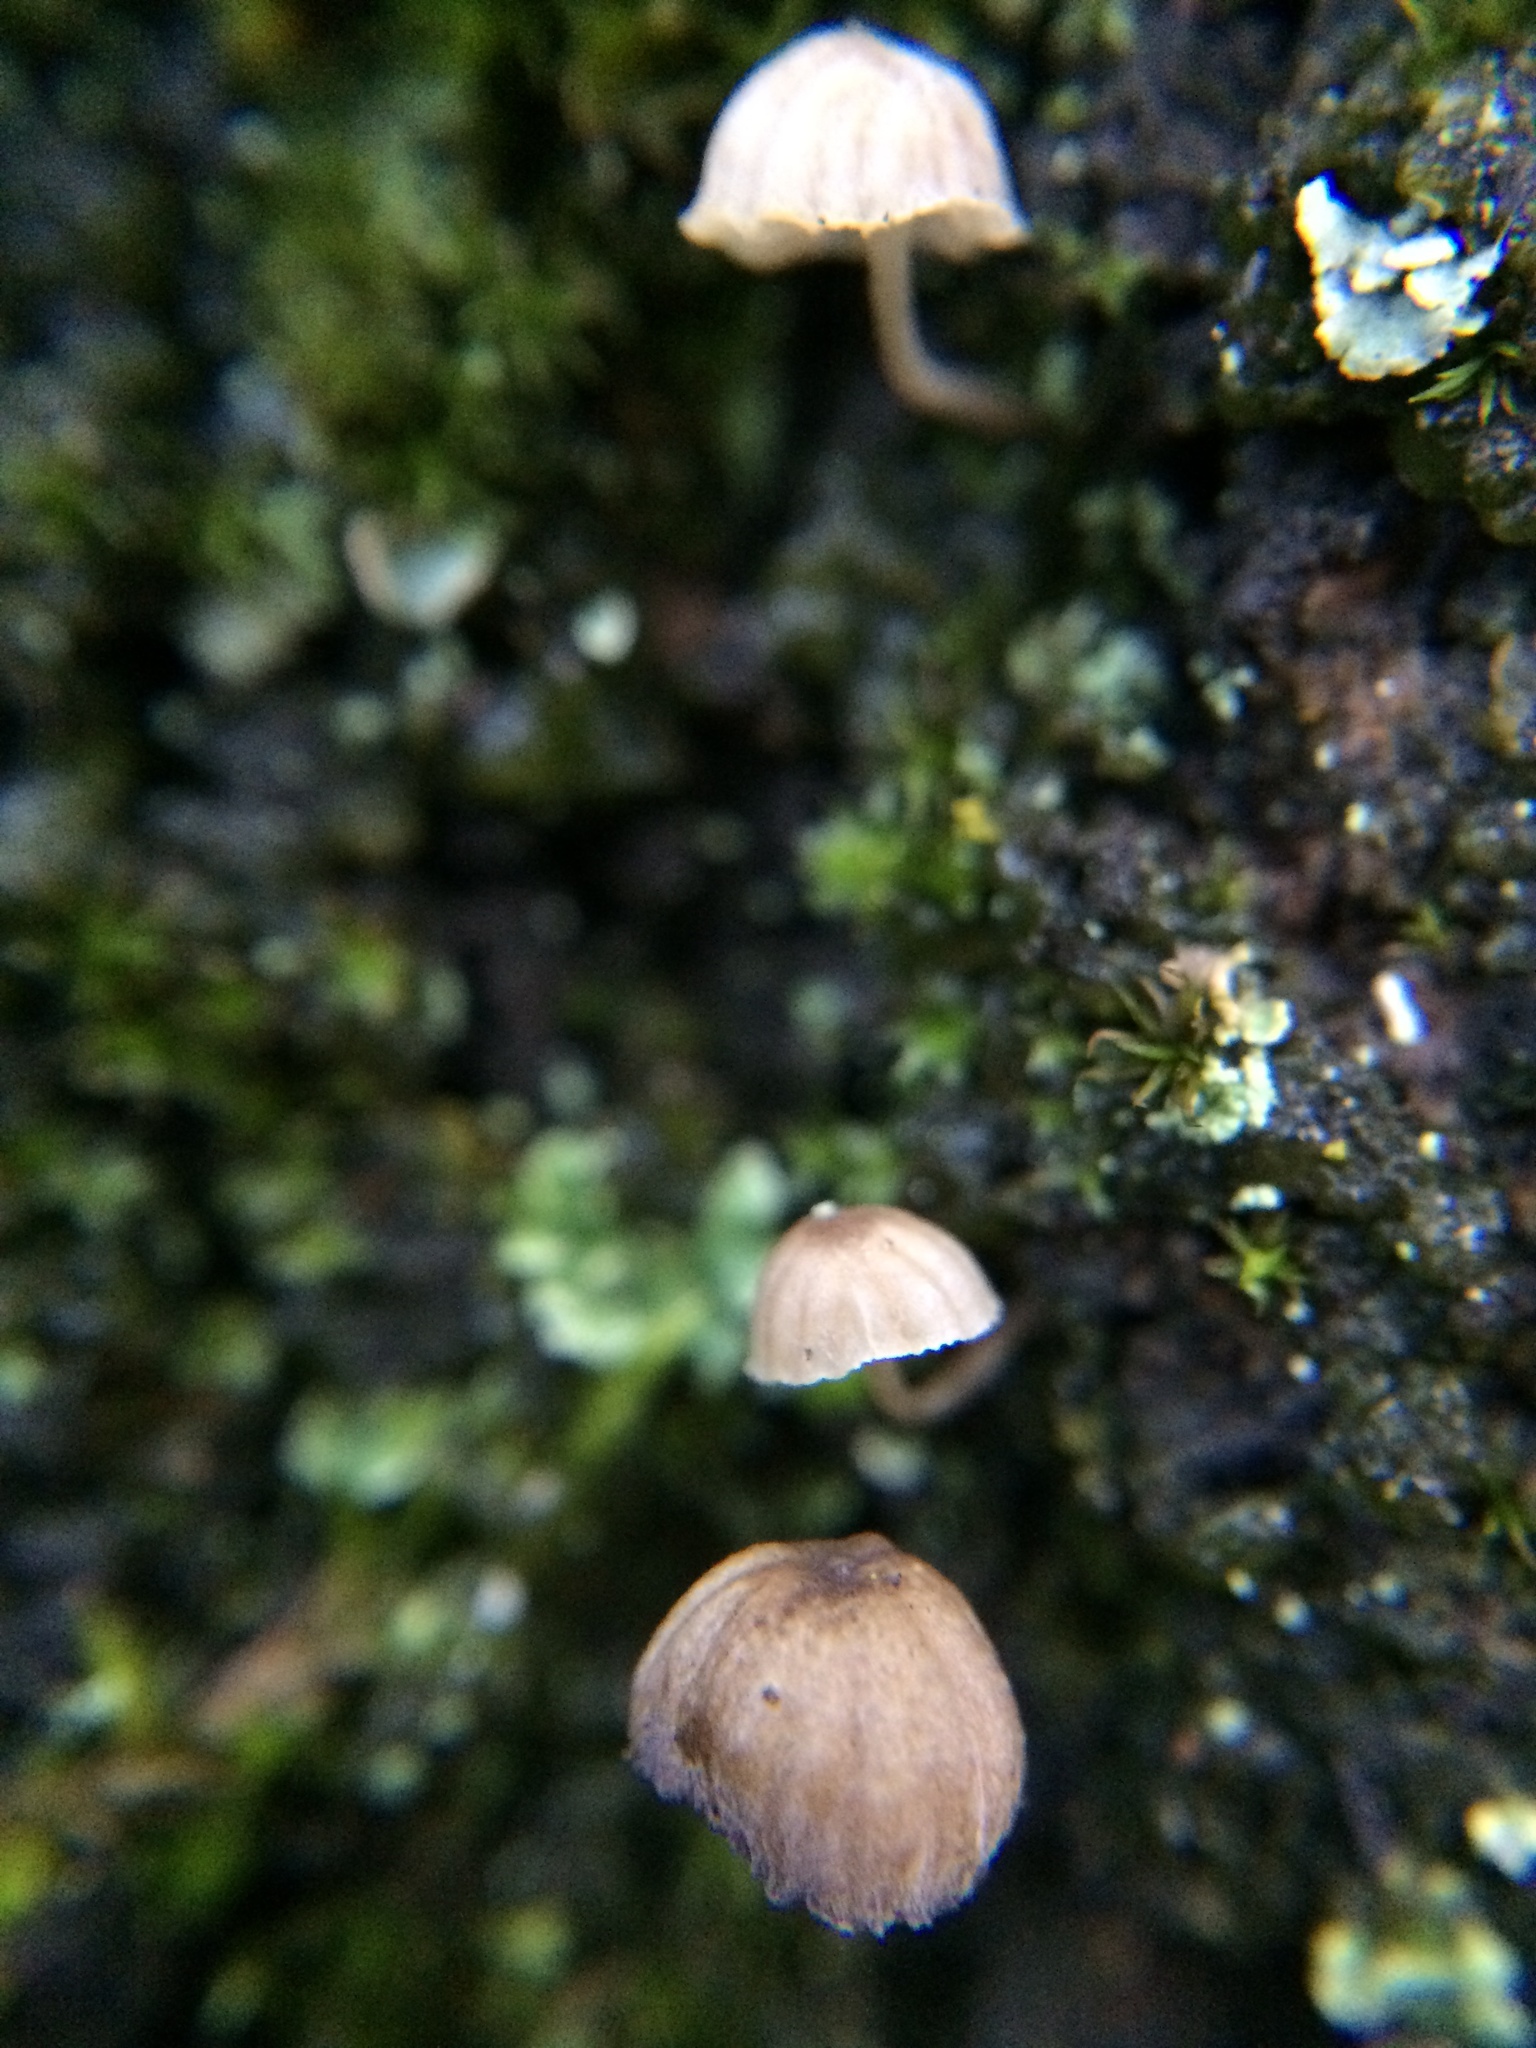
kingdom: Fungi
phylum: Basidiomycota
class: Agaricomycetes
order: Agaricales
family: Mycenaceae
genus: Mycena
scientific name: Mycena corticola
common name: Bark mycena
